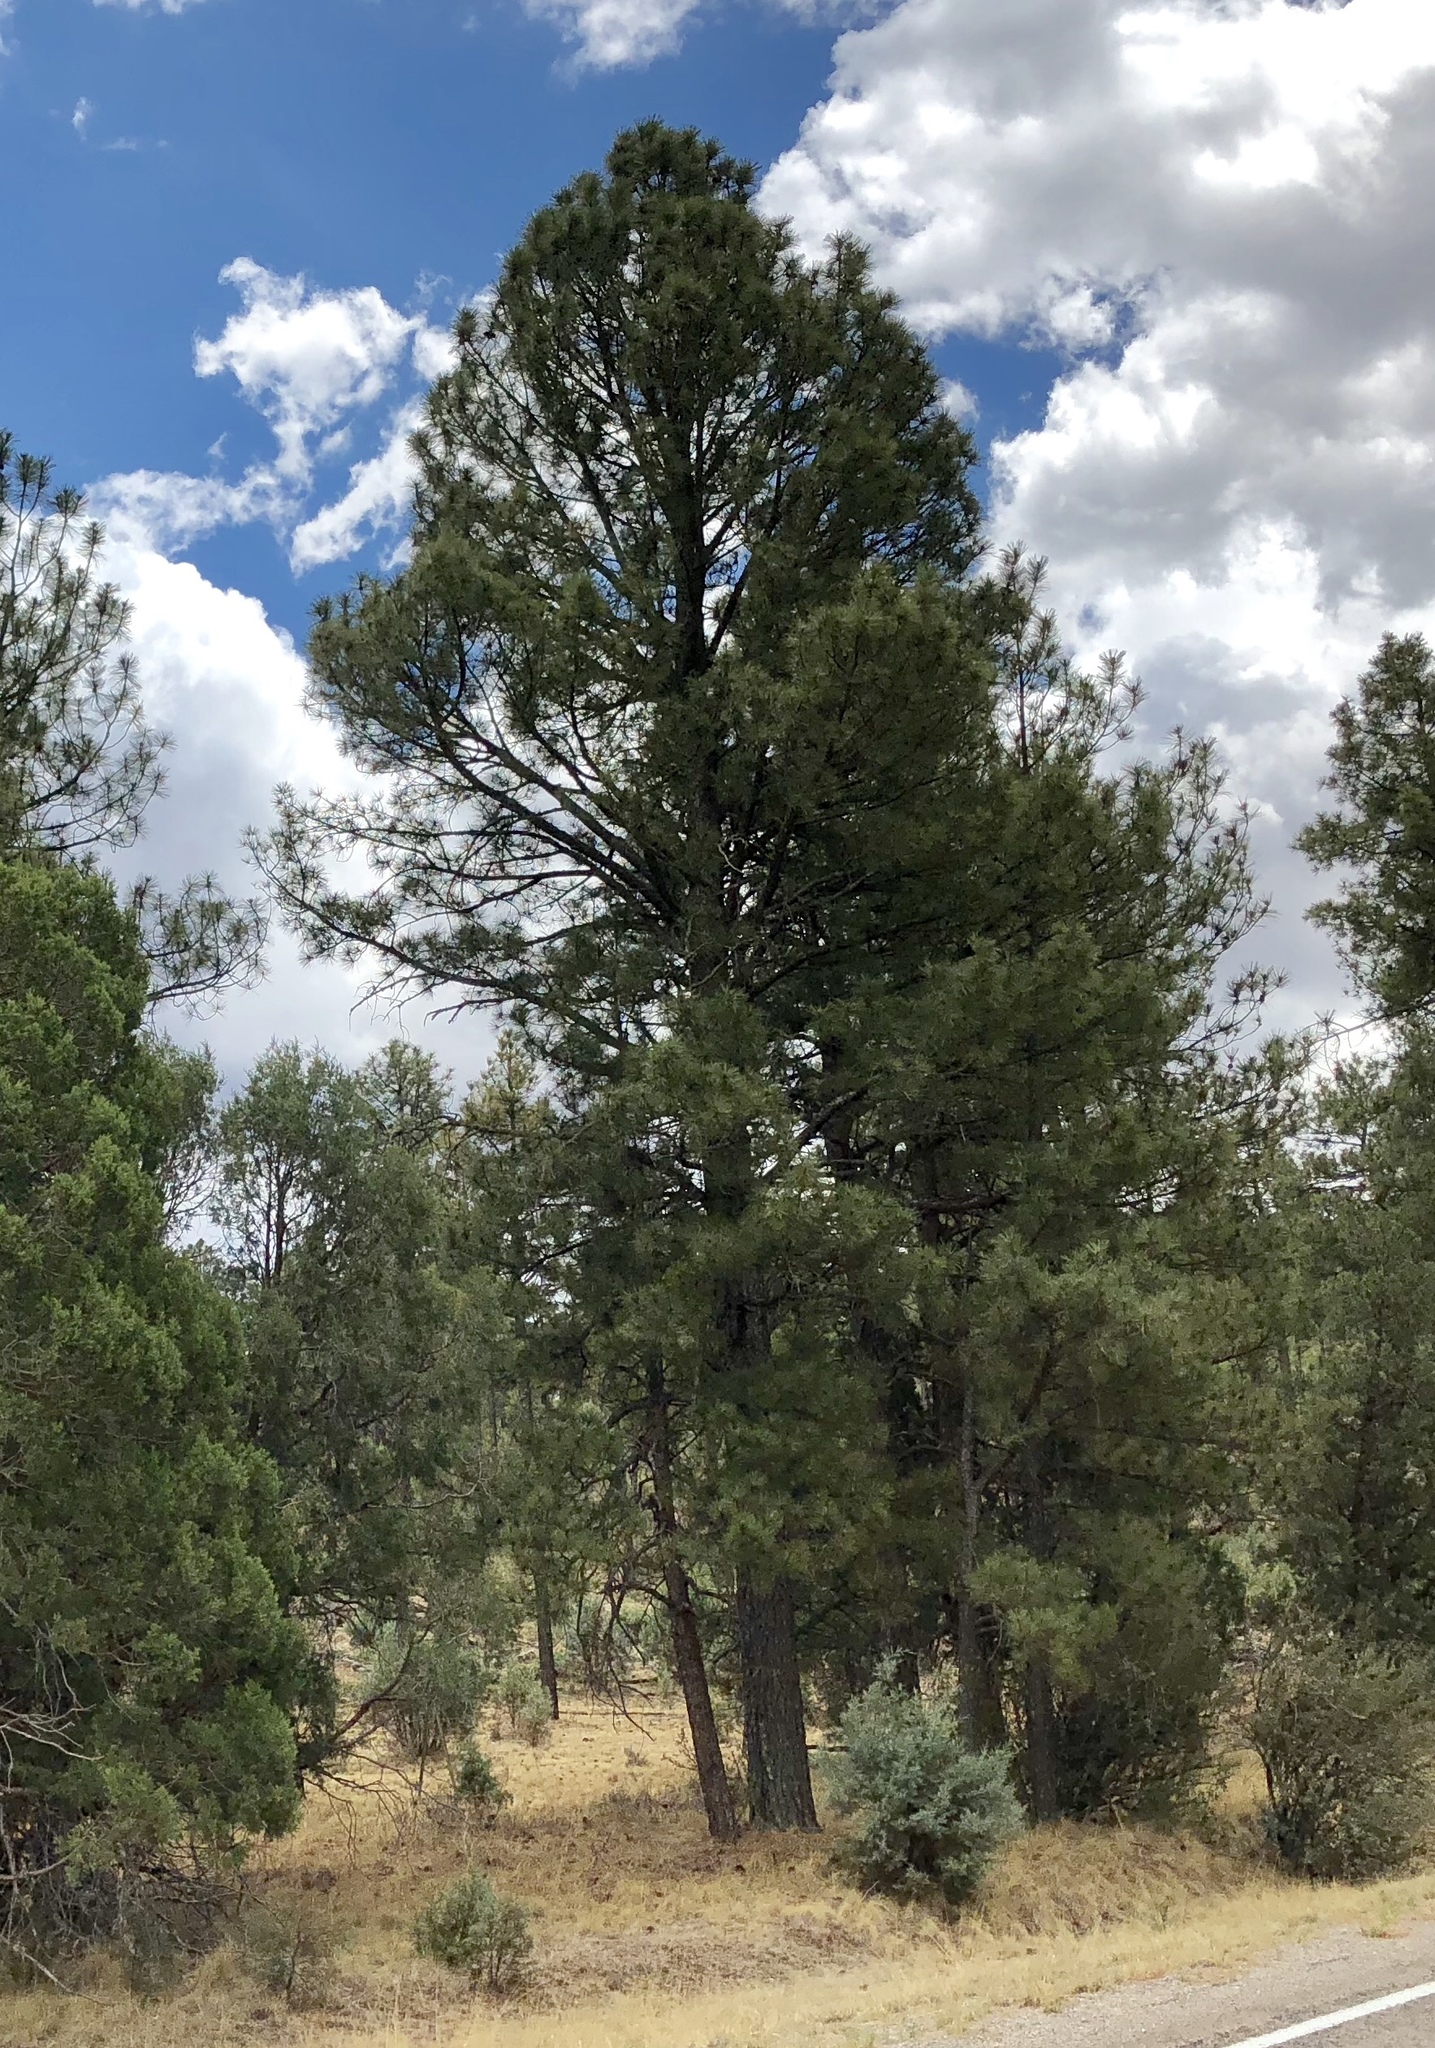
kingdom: Plantae
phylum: Tracheophyta
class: Pinopsida
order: Pinales
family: Pinaceae
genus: Pinus
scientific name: Pinus ponderosa
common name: Western yellow-pine
